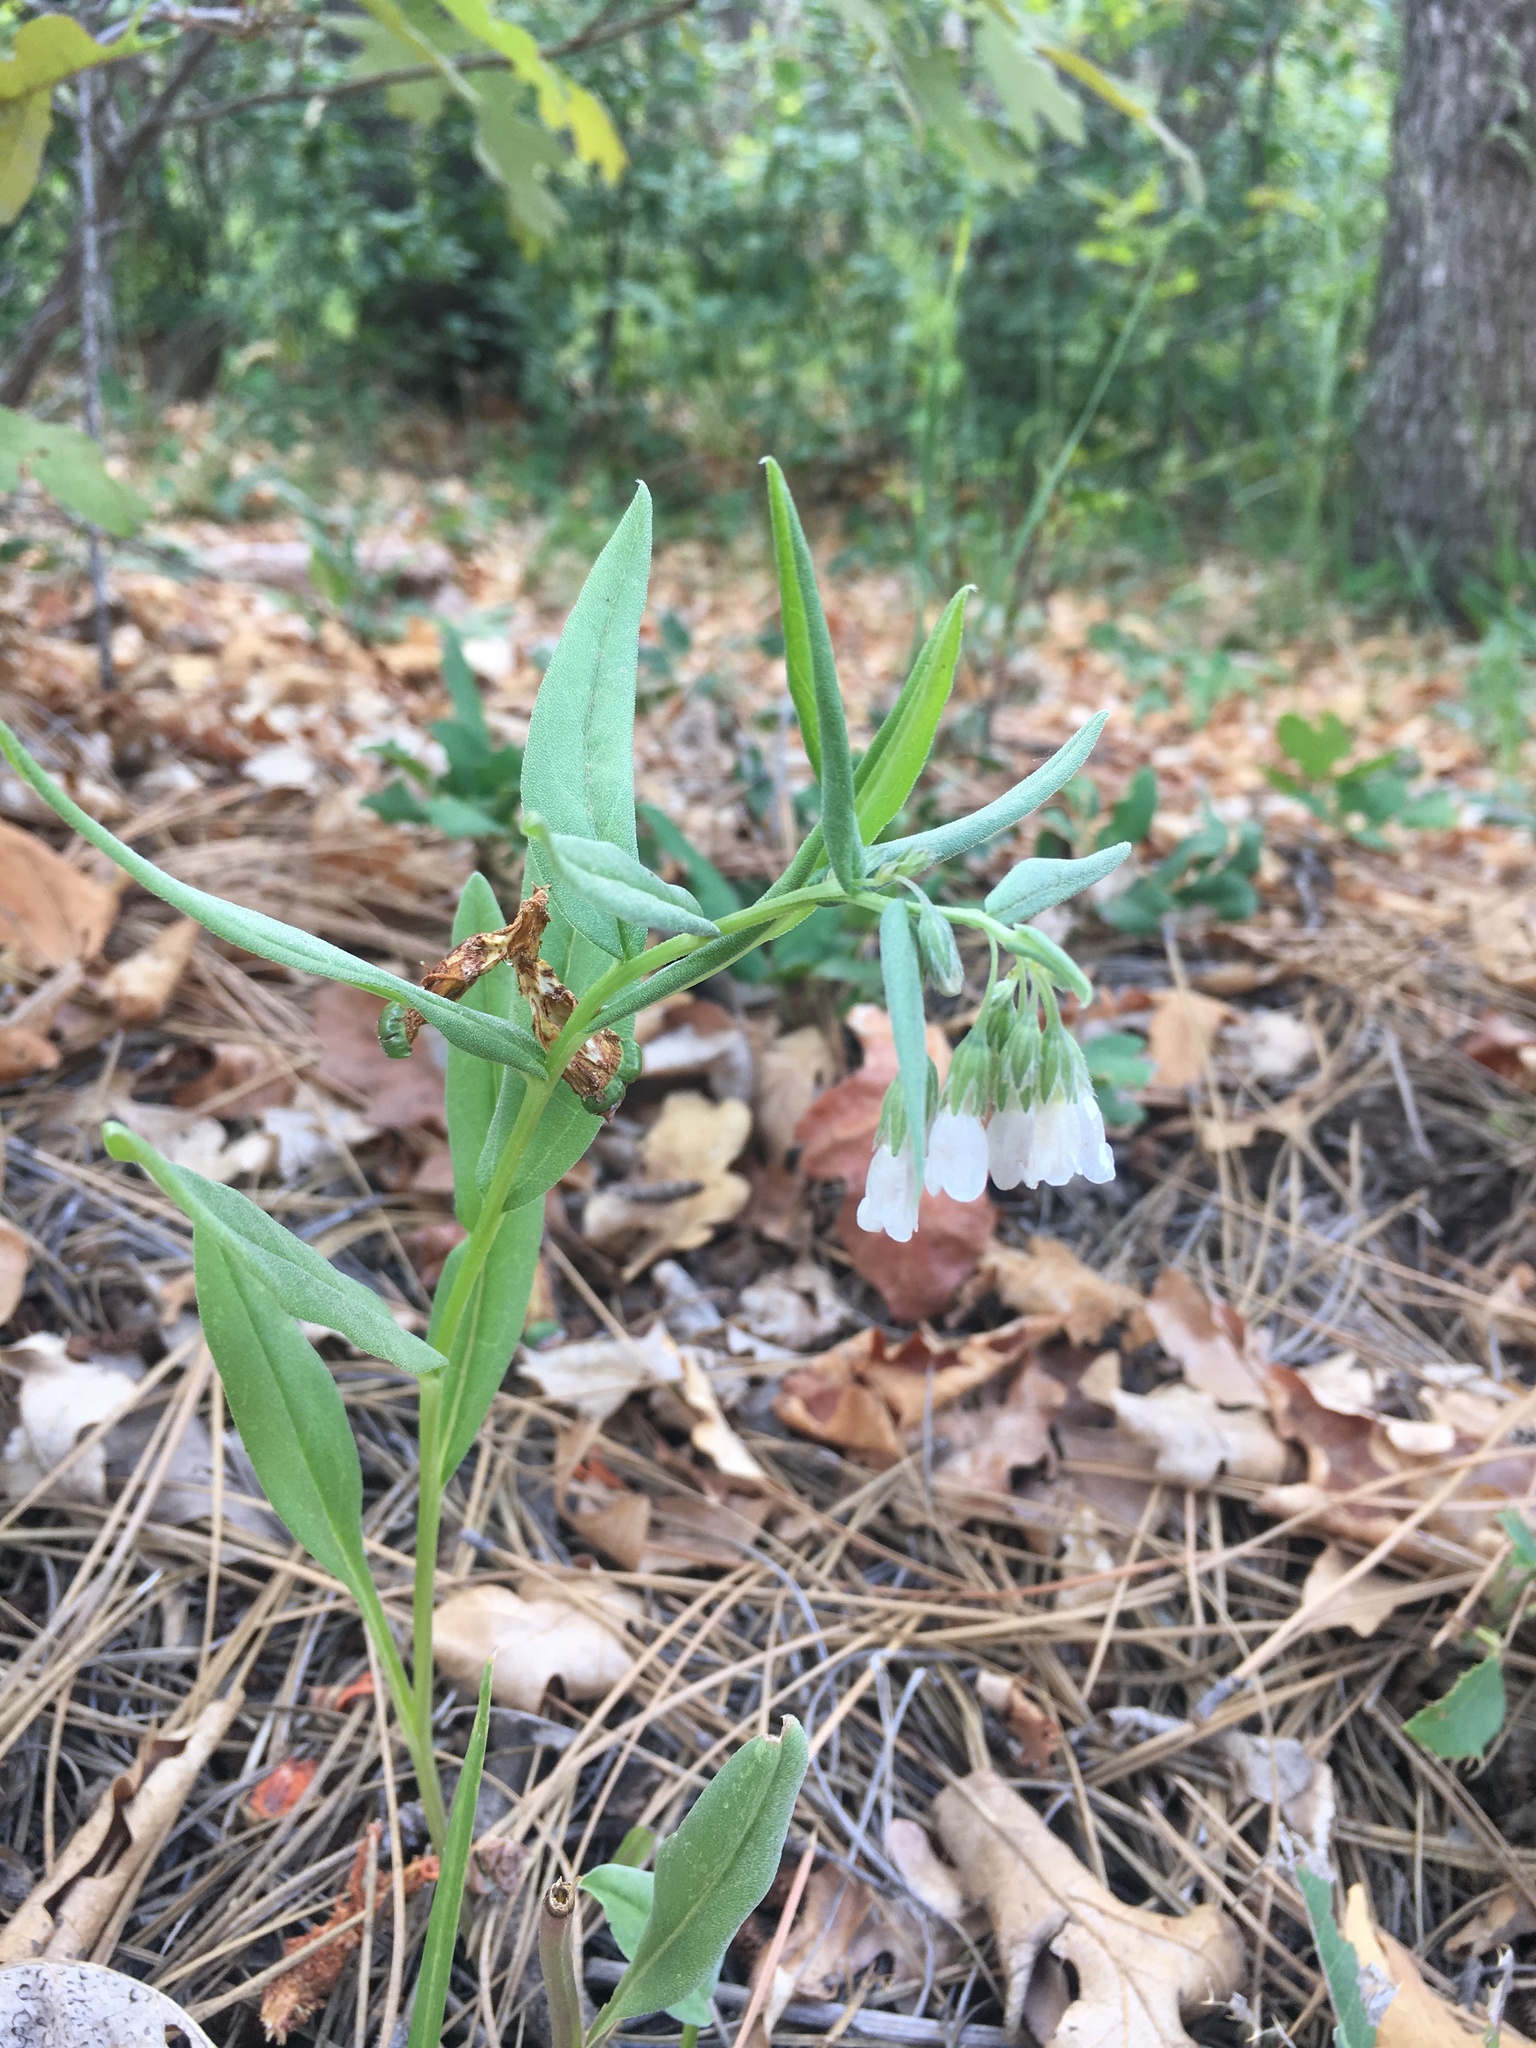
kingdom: Plantae
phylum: Tracheophyta
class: Magnoliopsida
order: Boraginales
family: Boraginaceae
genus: Mertensia
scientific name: Mertensia fendleri
